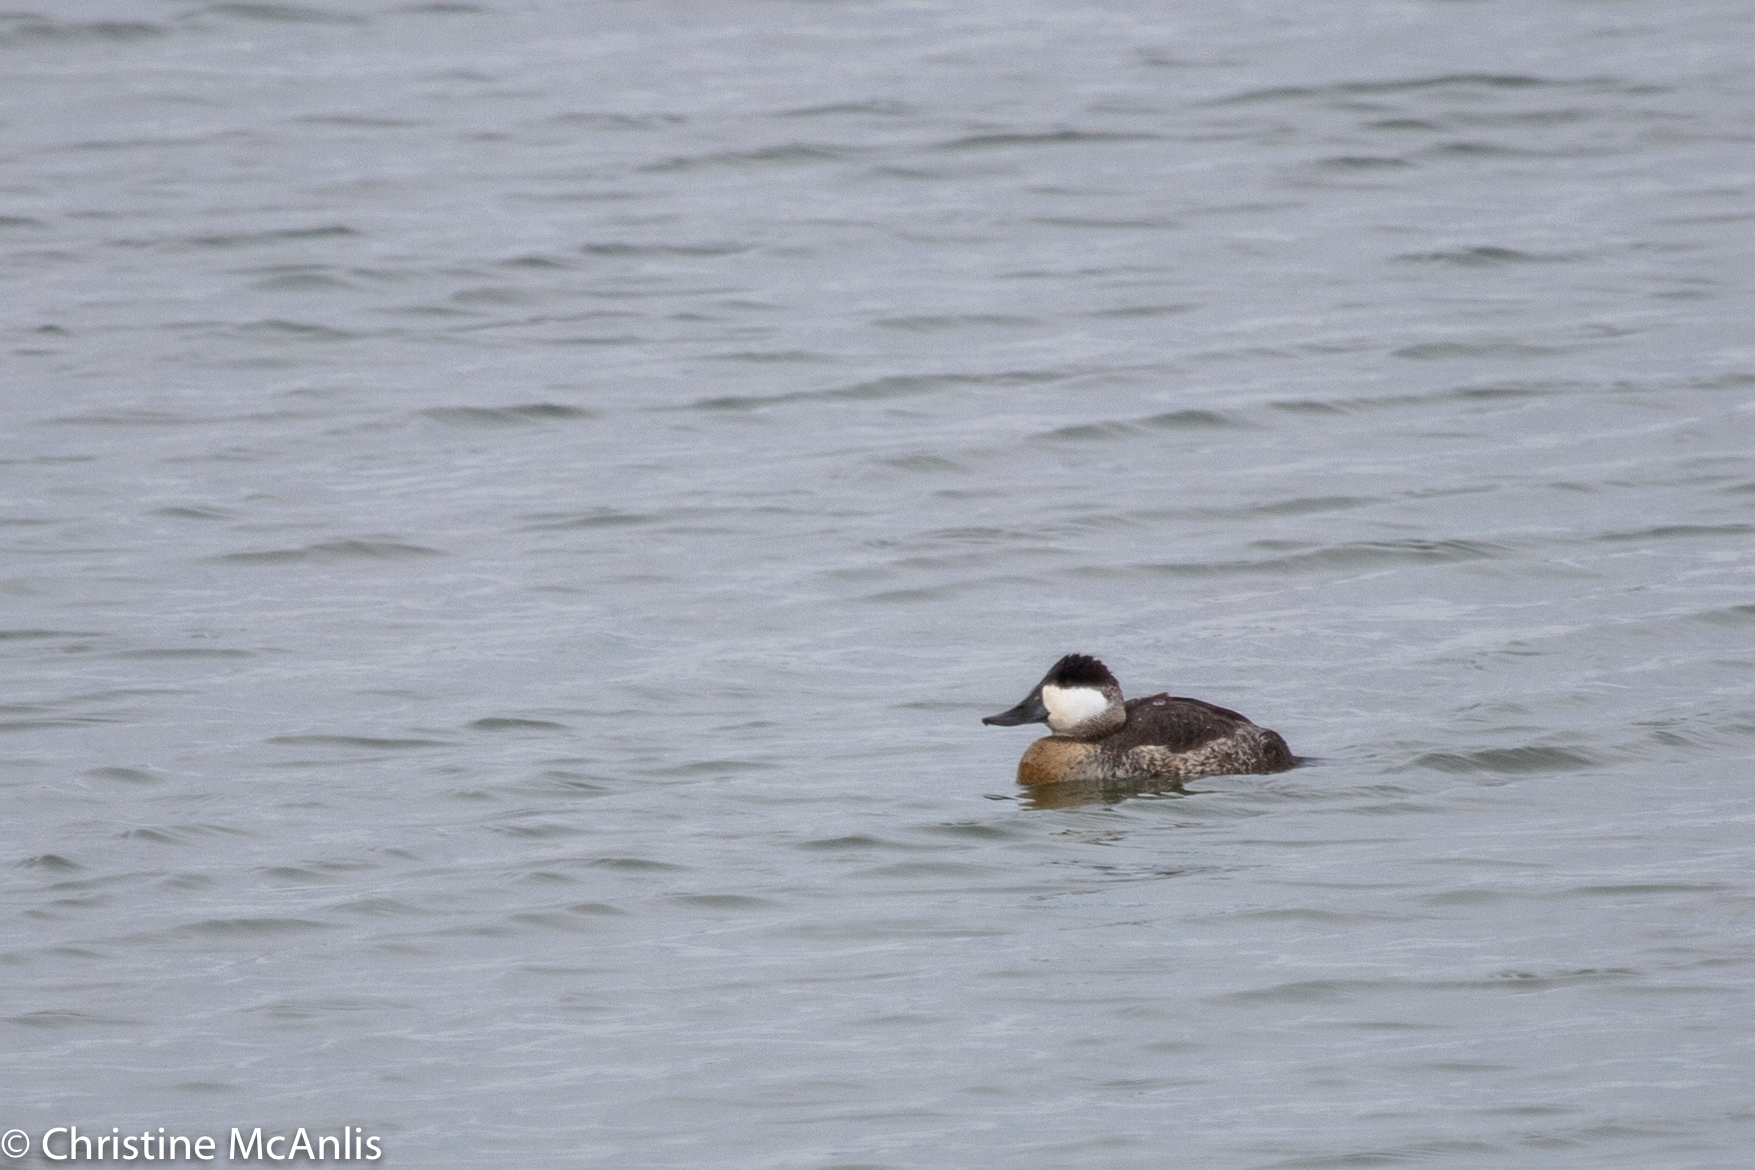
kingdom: Animalia
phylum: Chordata
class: Aves
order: Anseriformes
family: Anatidae
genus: Oxyura
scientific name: Oxyura jamaicensis
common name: Ruddy duck
